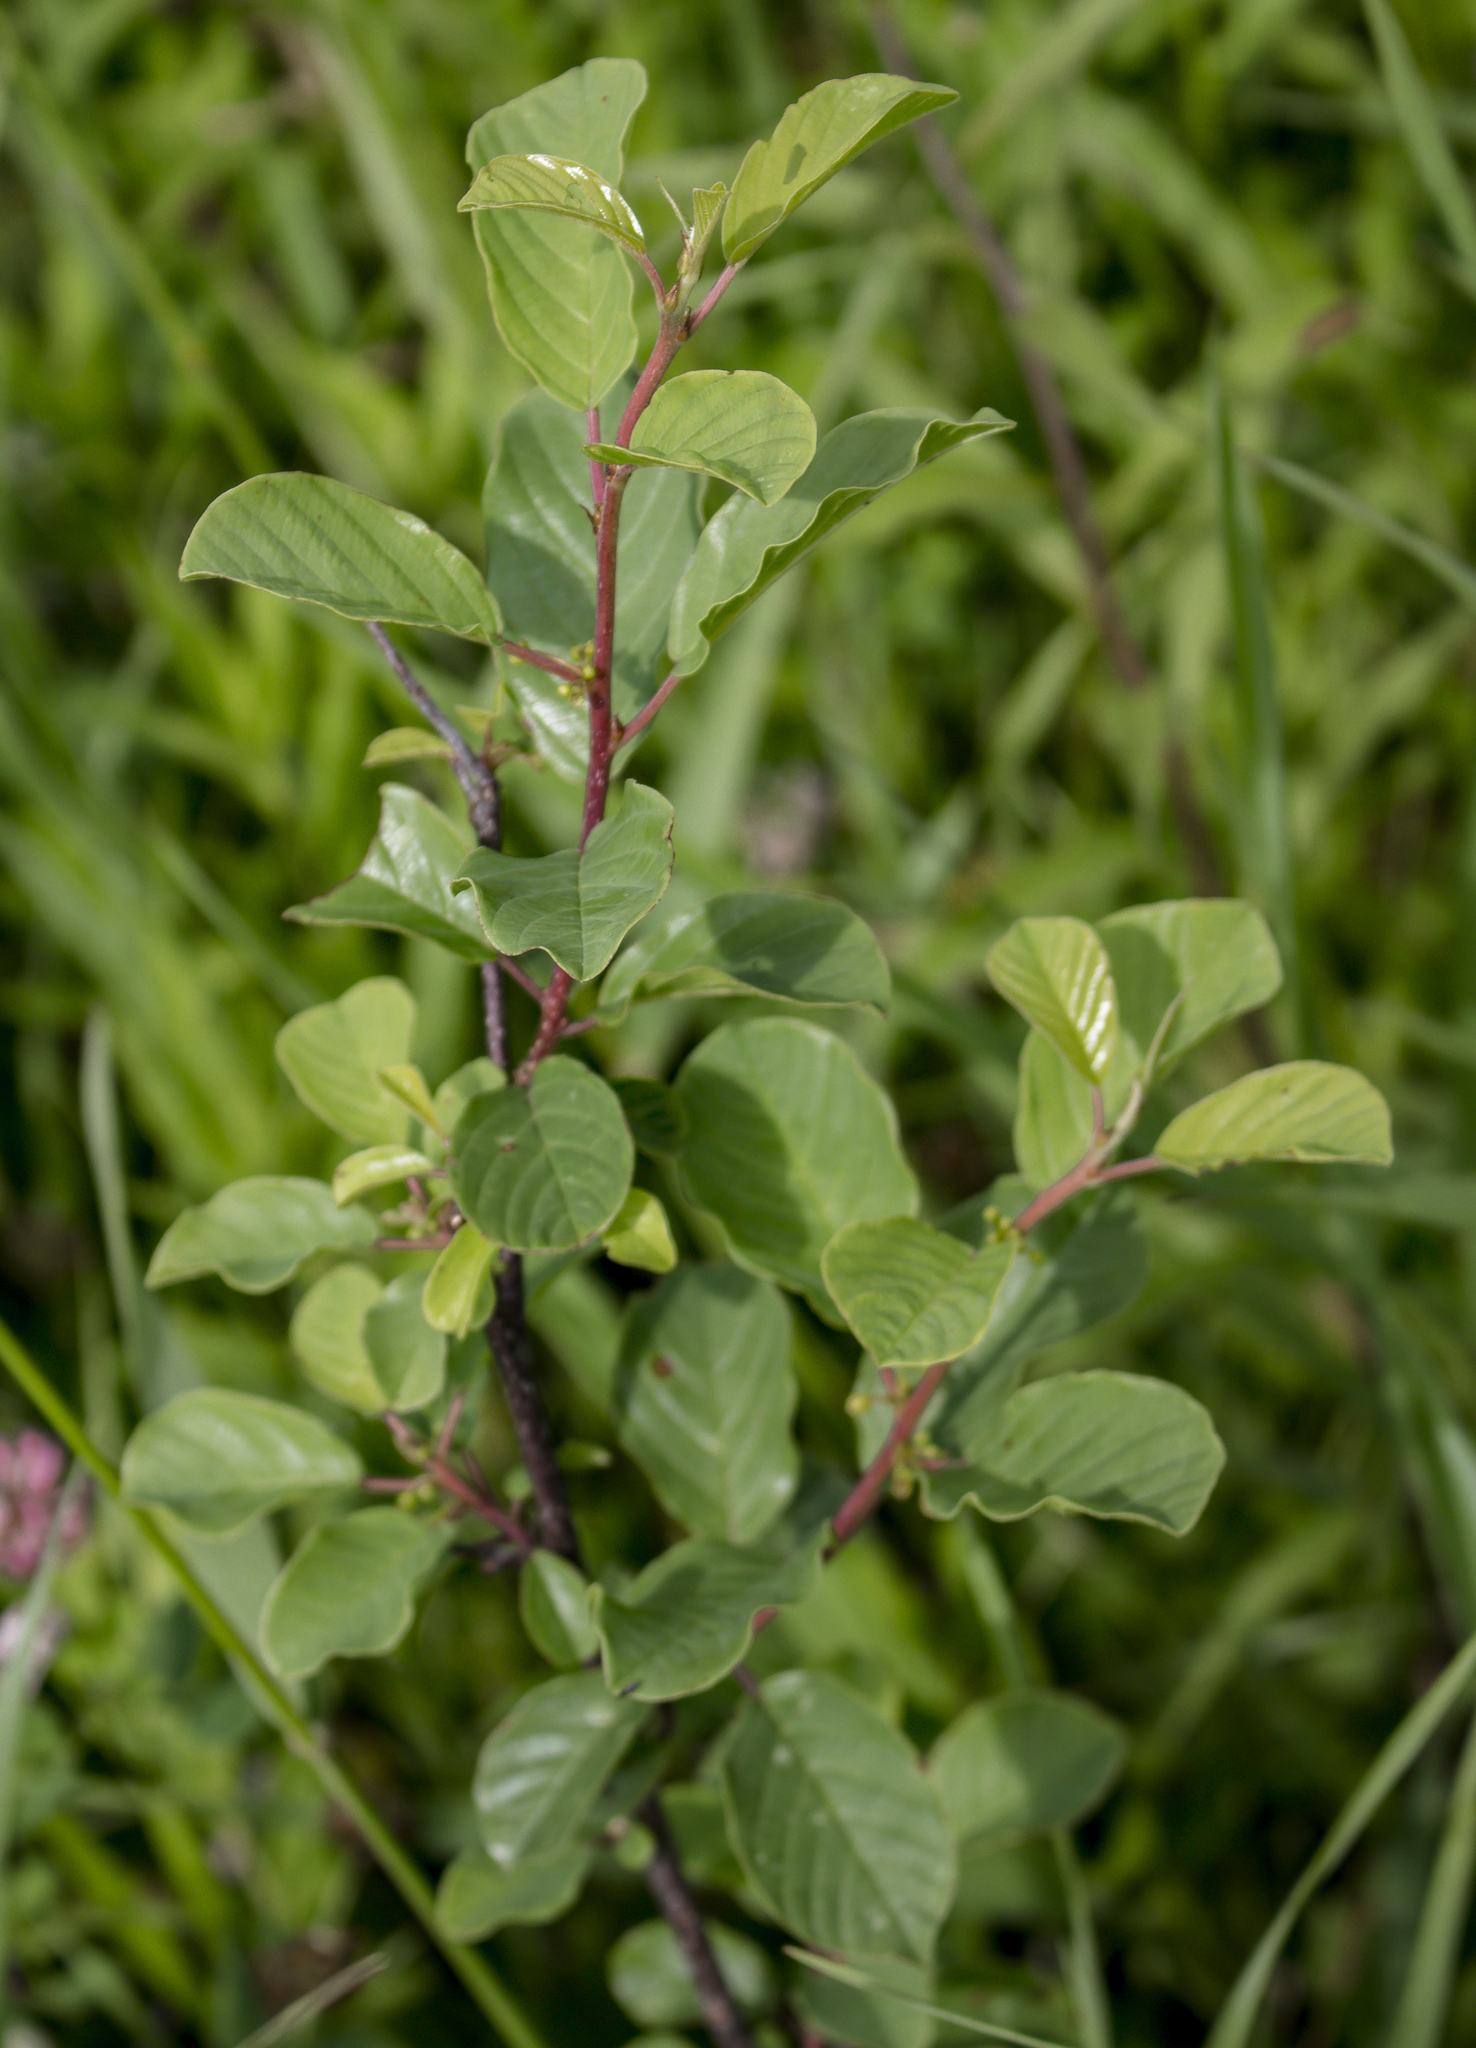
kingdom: Plantae
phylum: Tracheophyta
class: Magnoliopsida
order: Rosales
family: Rhamnaceae
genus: Frangula
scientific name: Frangula alnus
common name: Alder buckthorn
